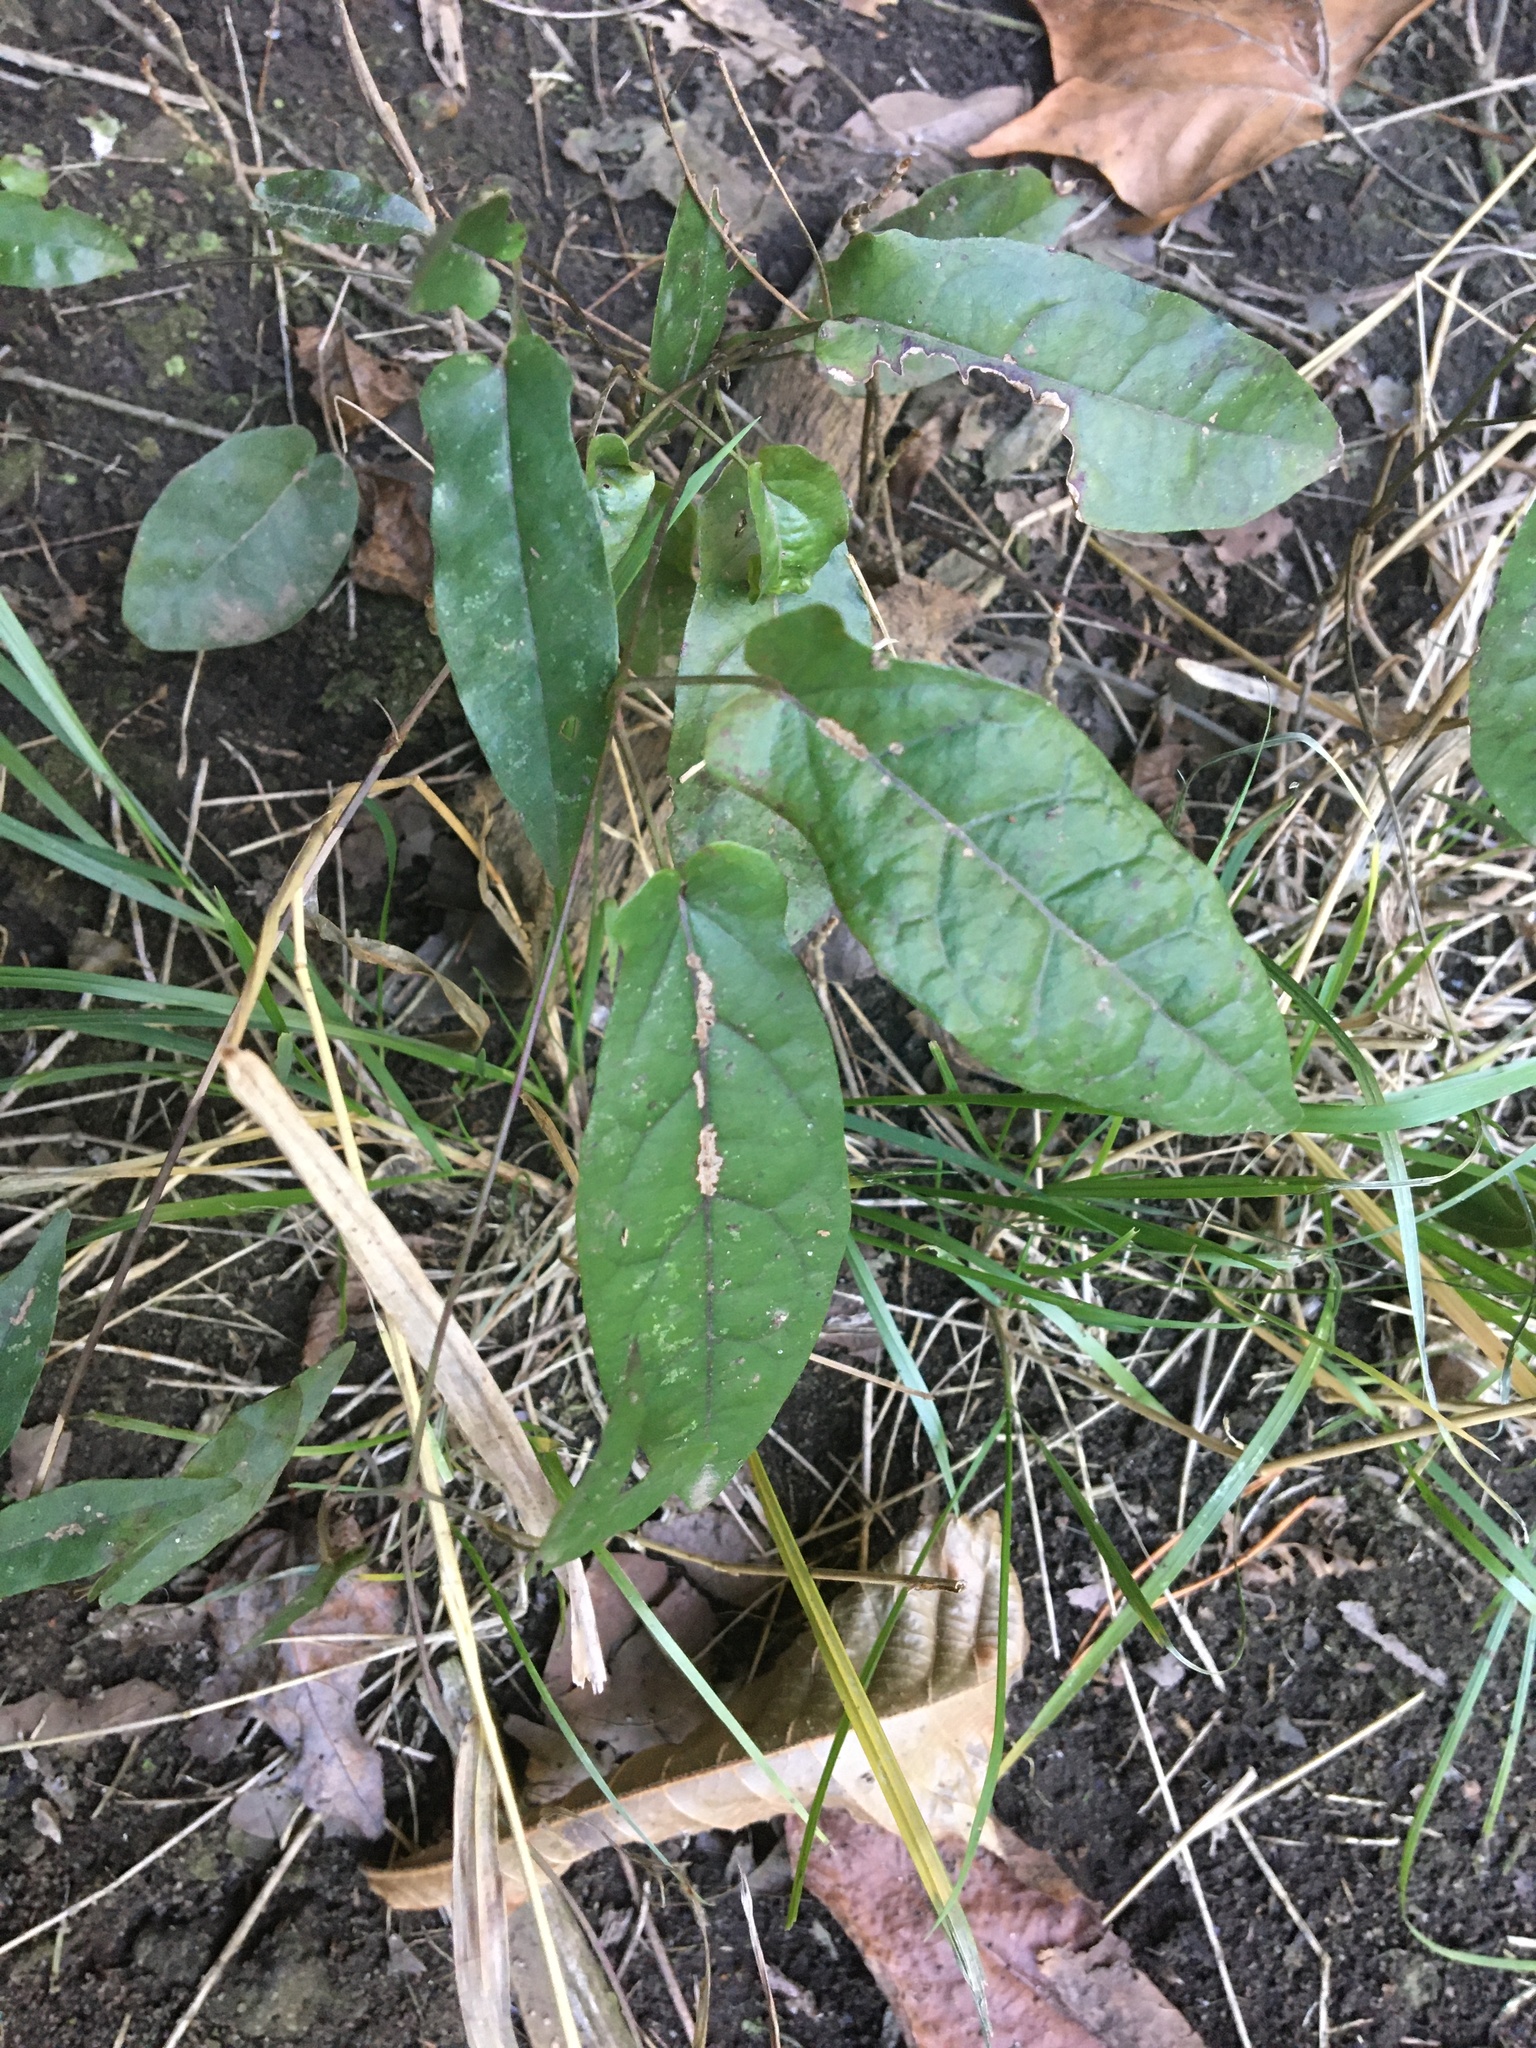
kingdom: Plantae
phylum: Tracheophyta
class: Magnoliopsida
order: Lamiales
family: Bignoniaceae
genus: Bignonia
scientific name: Bignonia capreolata
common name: Crossvine
